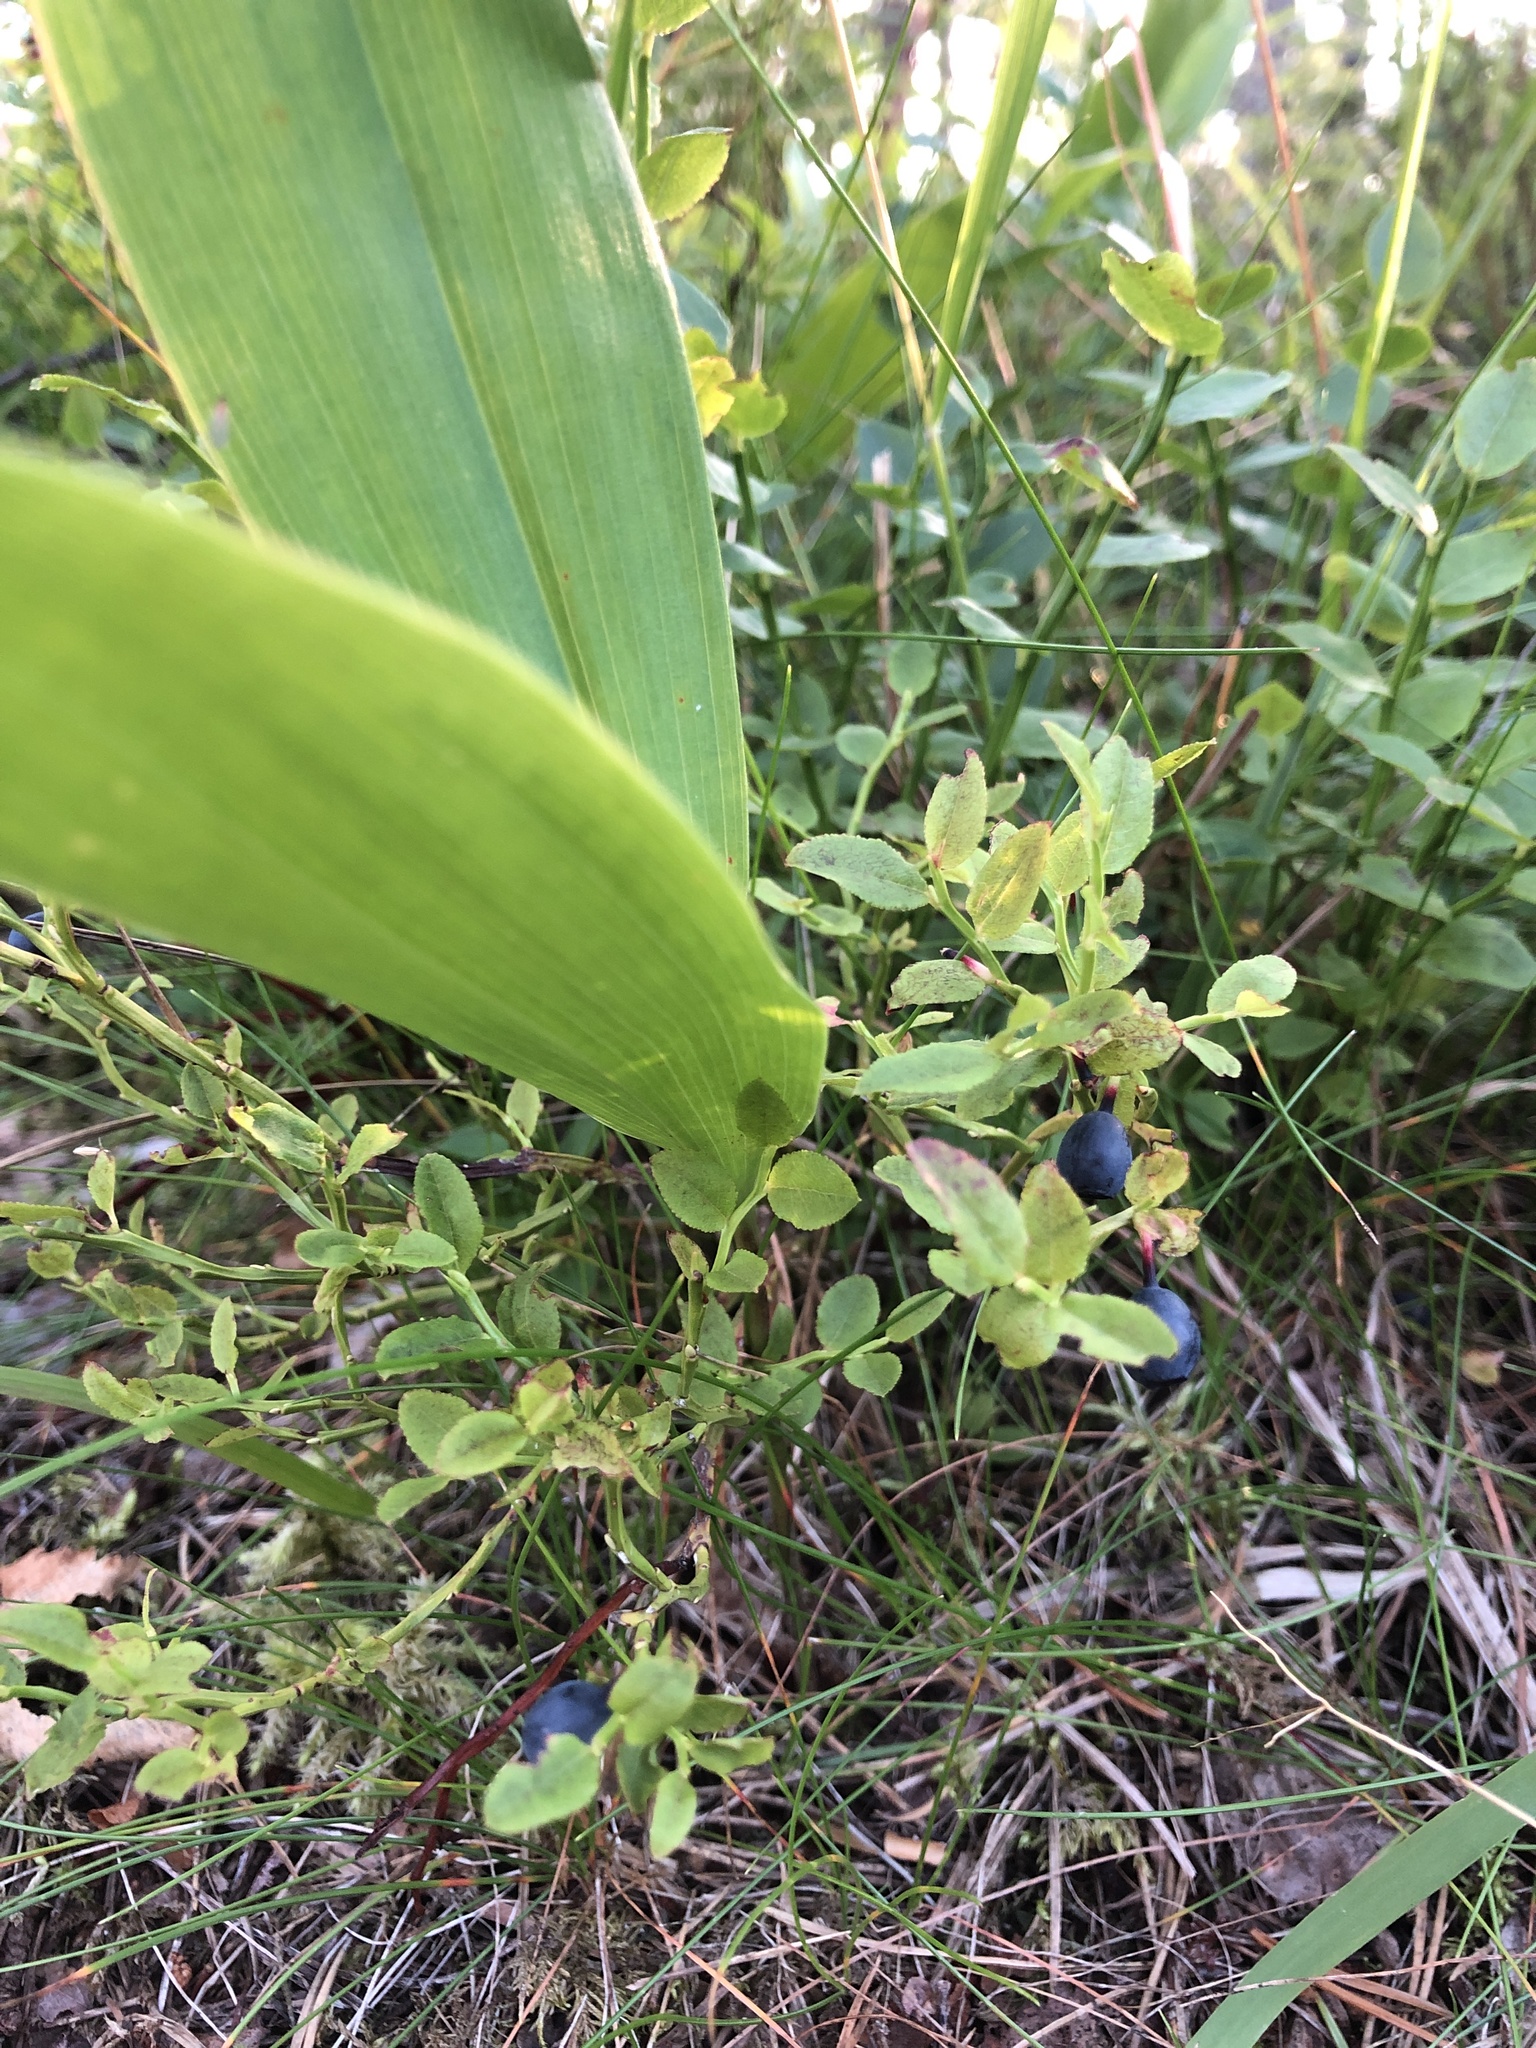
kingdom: Plantae
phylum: Tracheophyta
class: Magnoliopsida
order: Ericales
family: Ericaceae
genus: Vaccinium
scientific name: Vaccinium myrtillus
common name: Bilberry
